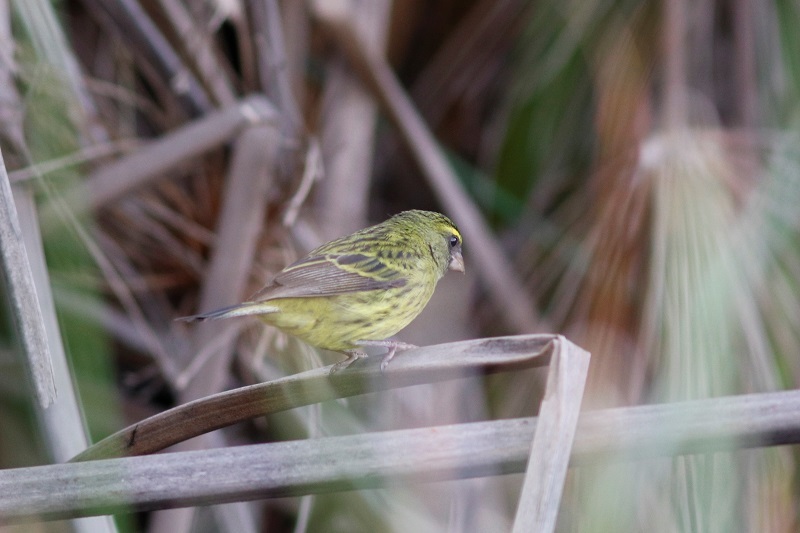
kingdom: Animalia
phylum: Chordata
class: Aves
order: Passeriformes
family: Fringillidae
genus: Crithagra
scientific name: Crithagra scotops
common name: Forest canary
